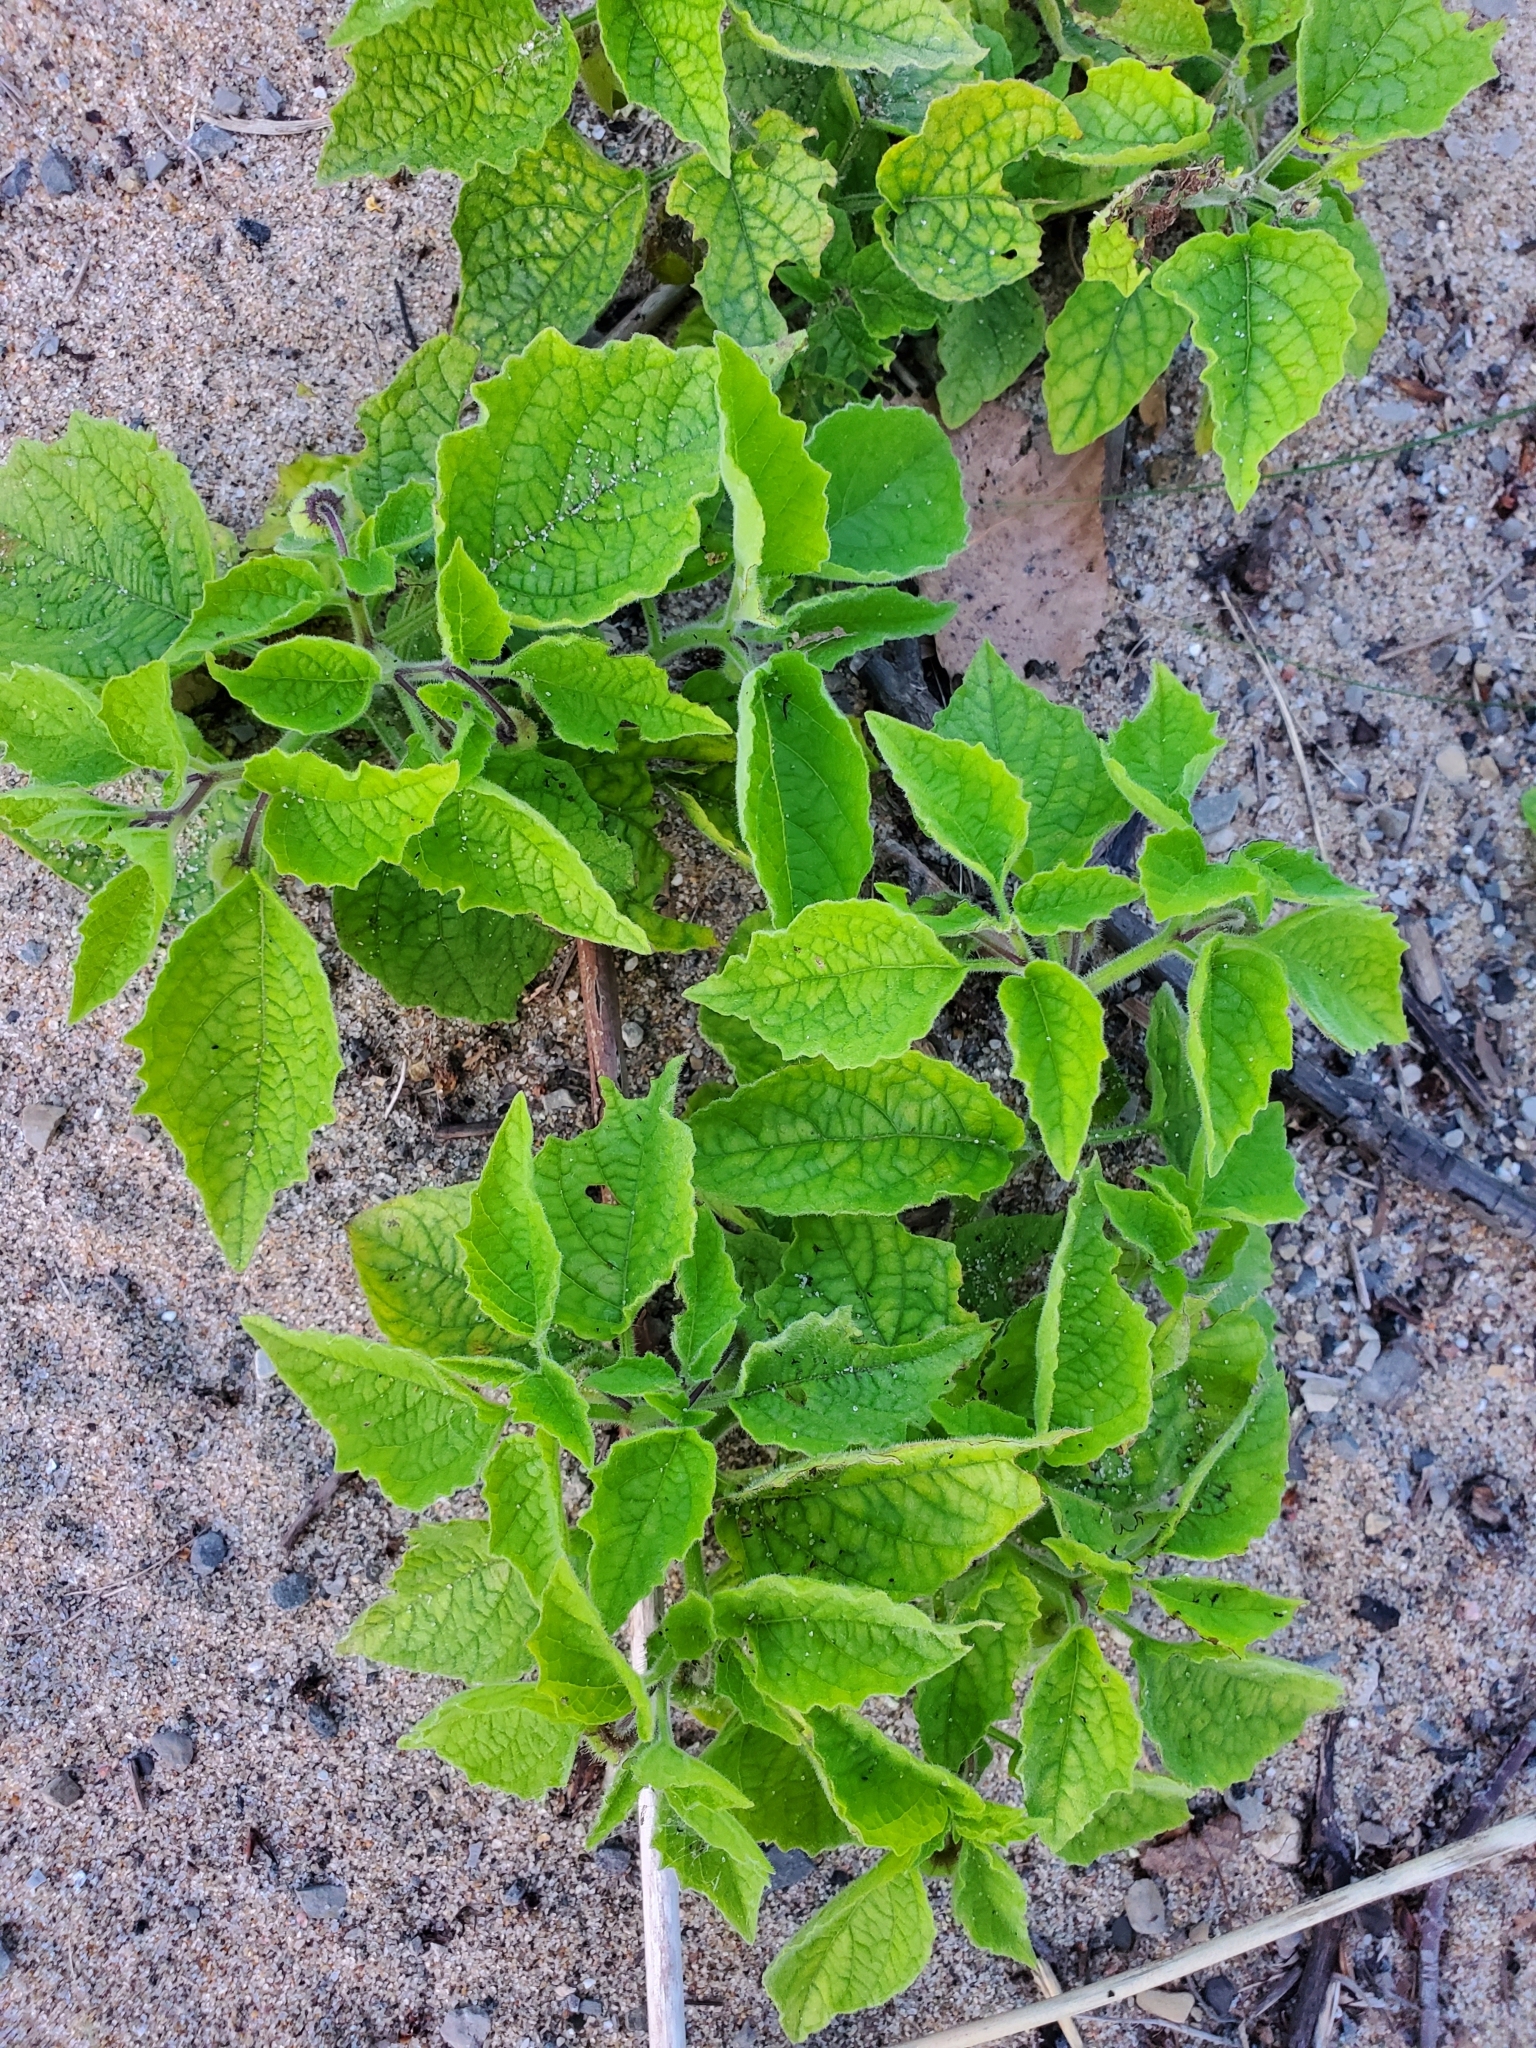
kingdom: Plantae
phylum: Tracheophyta
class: Magnoliopsida
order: Solanales
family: Solanaceae
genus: Physalis
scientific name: Physalis heterophylla
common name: Clammy ground-cherry
